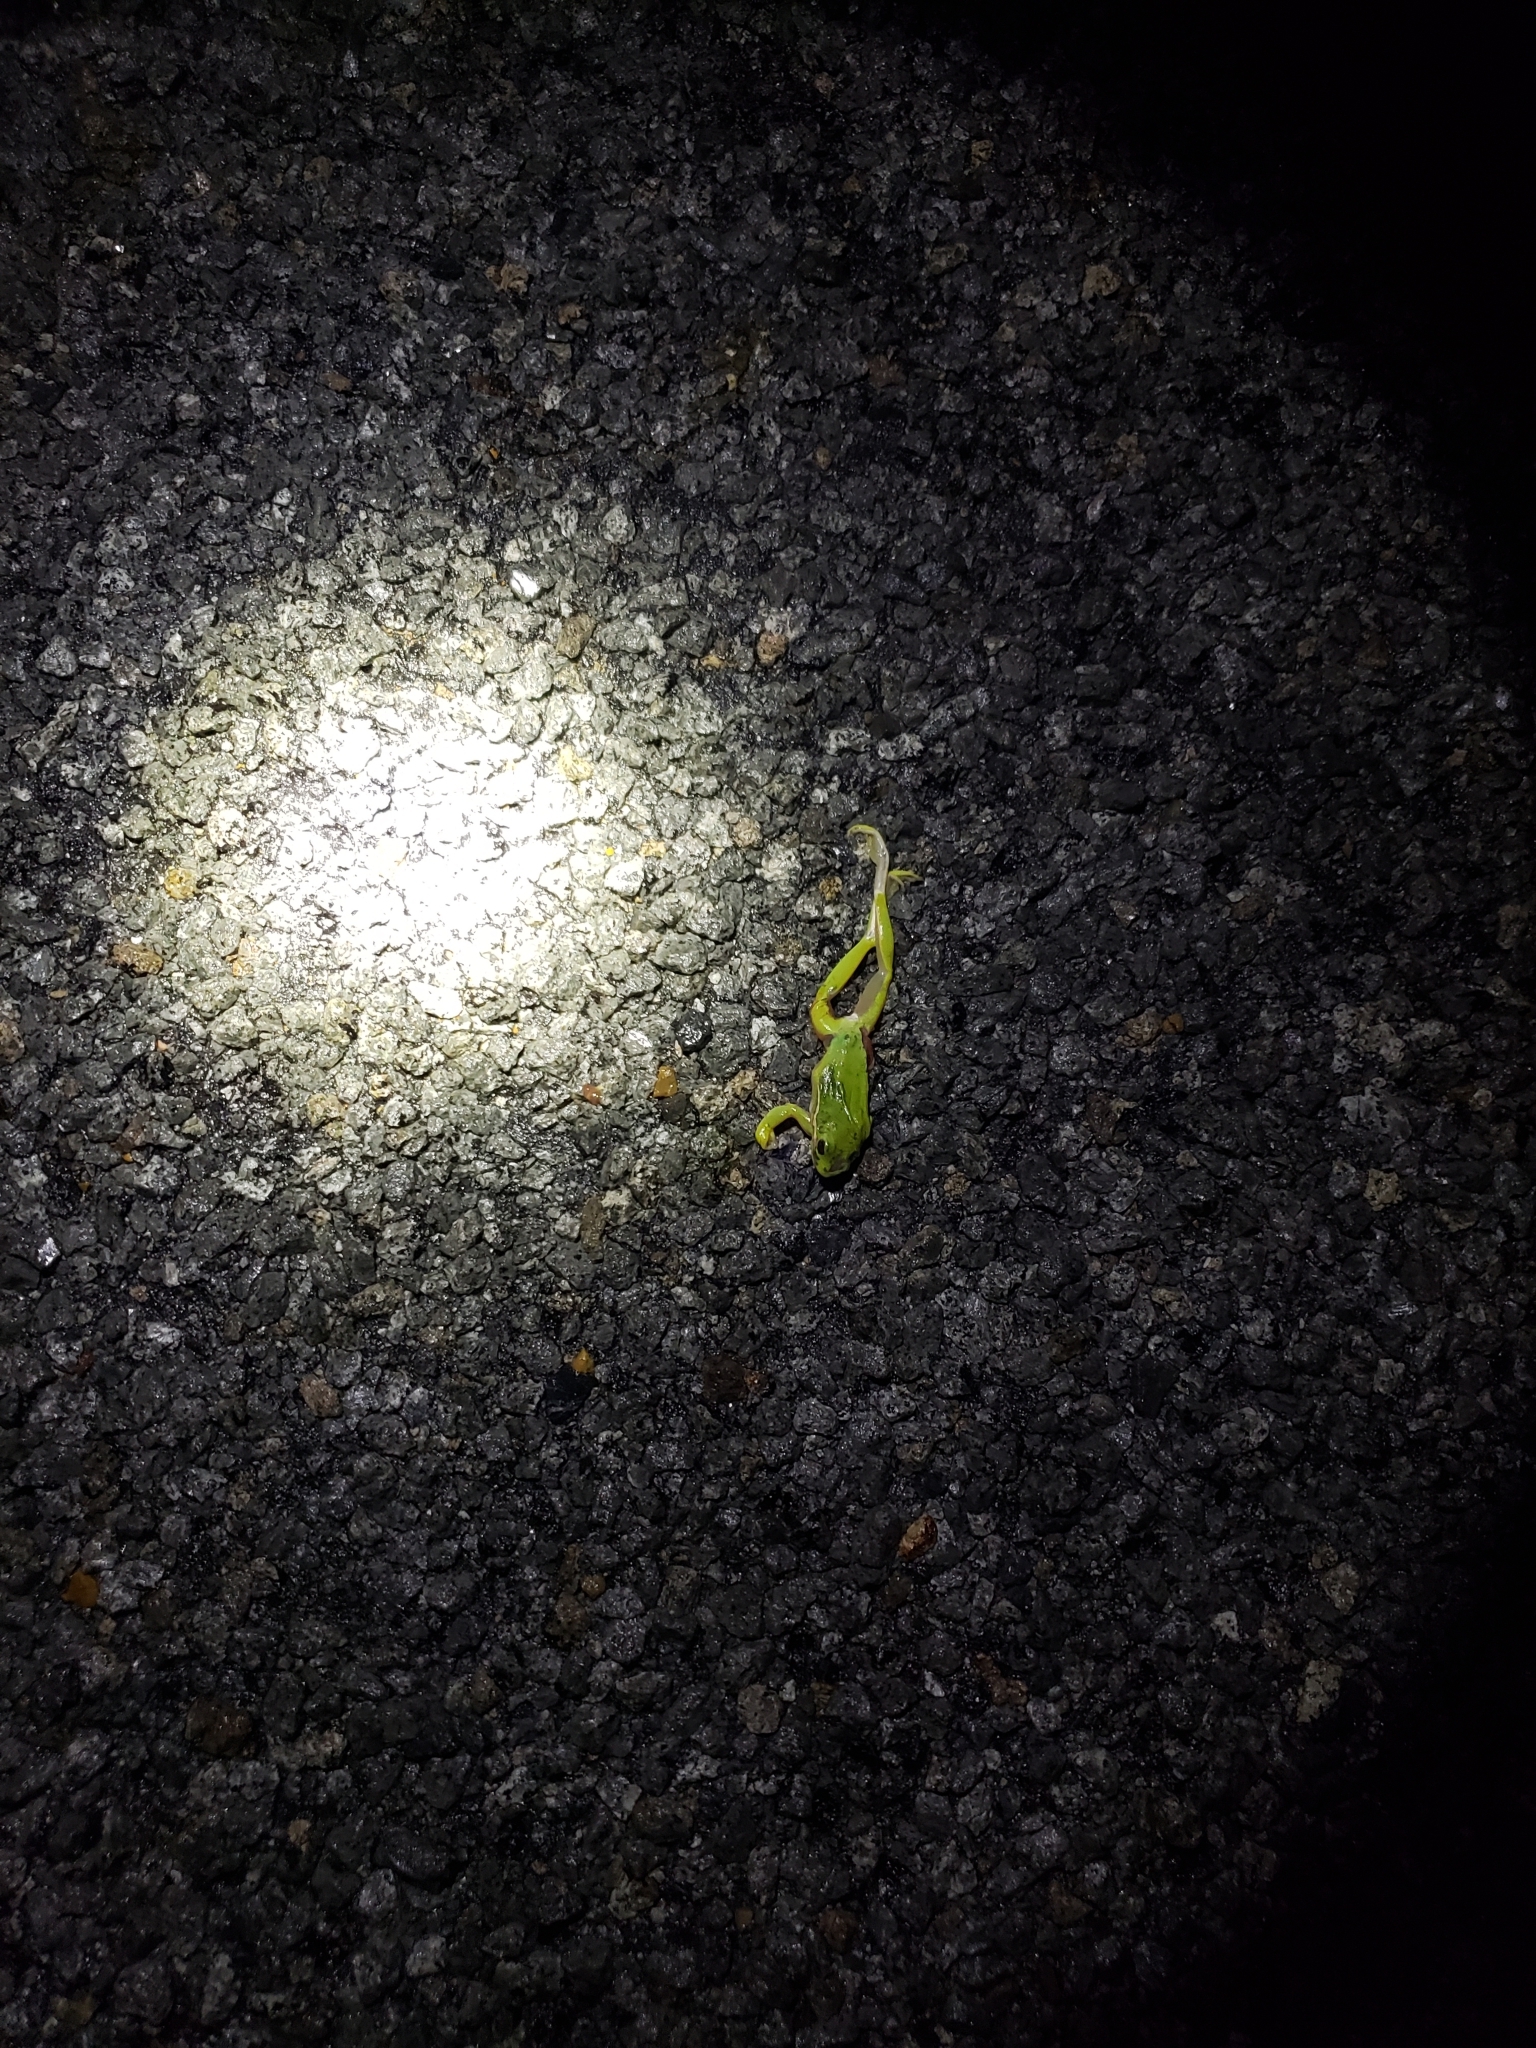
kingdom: Animalia
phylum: Chordata
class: Amphibia
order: Anura
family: Hylidae
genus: Dryophytes
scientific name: Dryophytes cinereus
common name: Green treefrog
